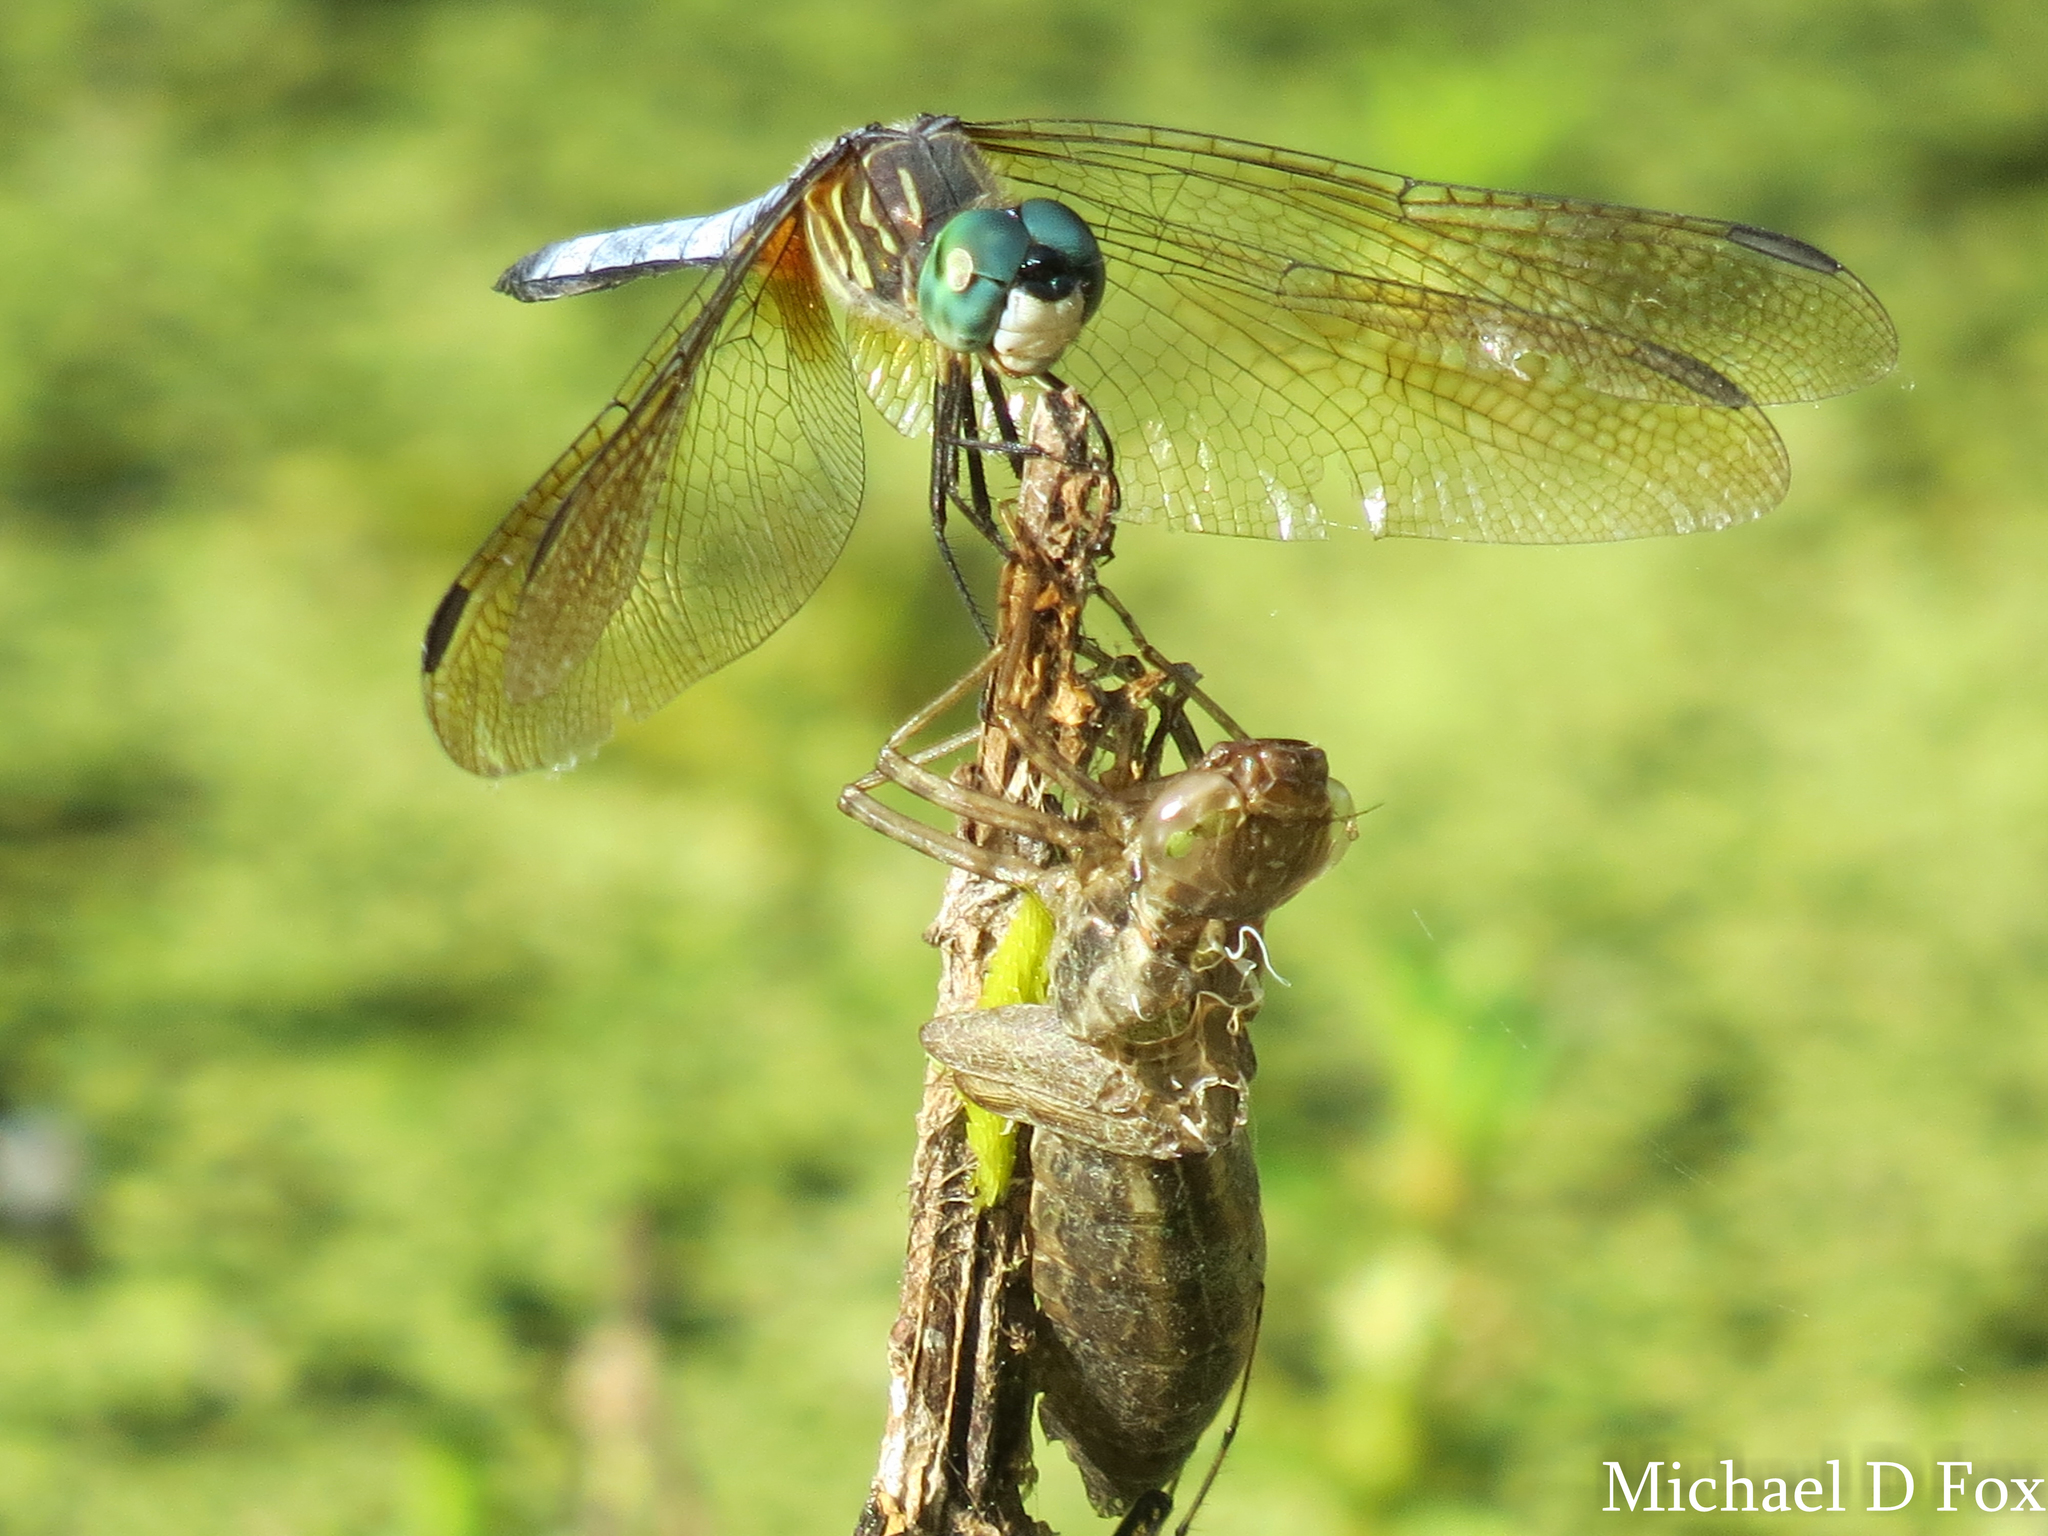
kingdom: Animalia
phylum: Arthropoda
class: Insecta
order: Odonata
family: Libellulidae
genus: Pachydiplax
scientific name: Pachydiplax longipennis
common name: Blue dasher
